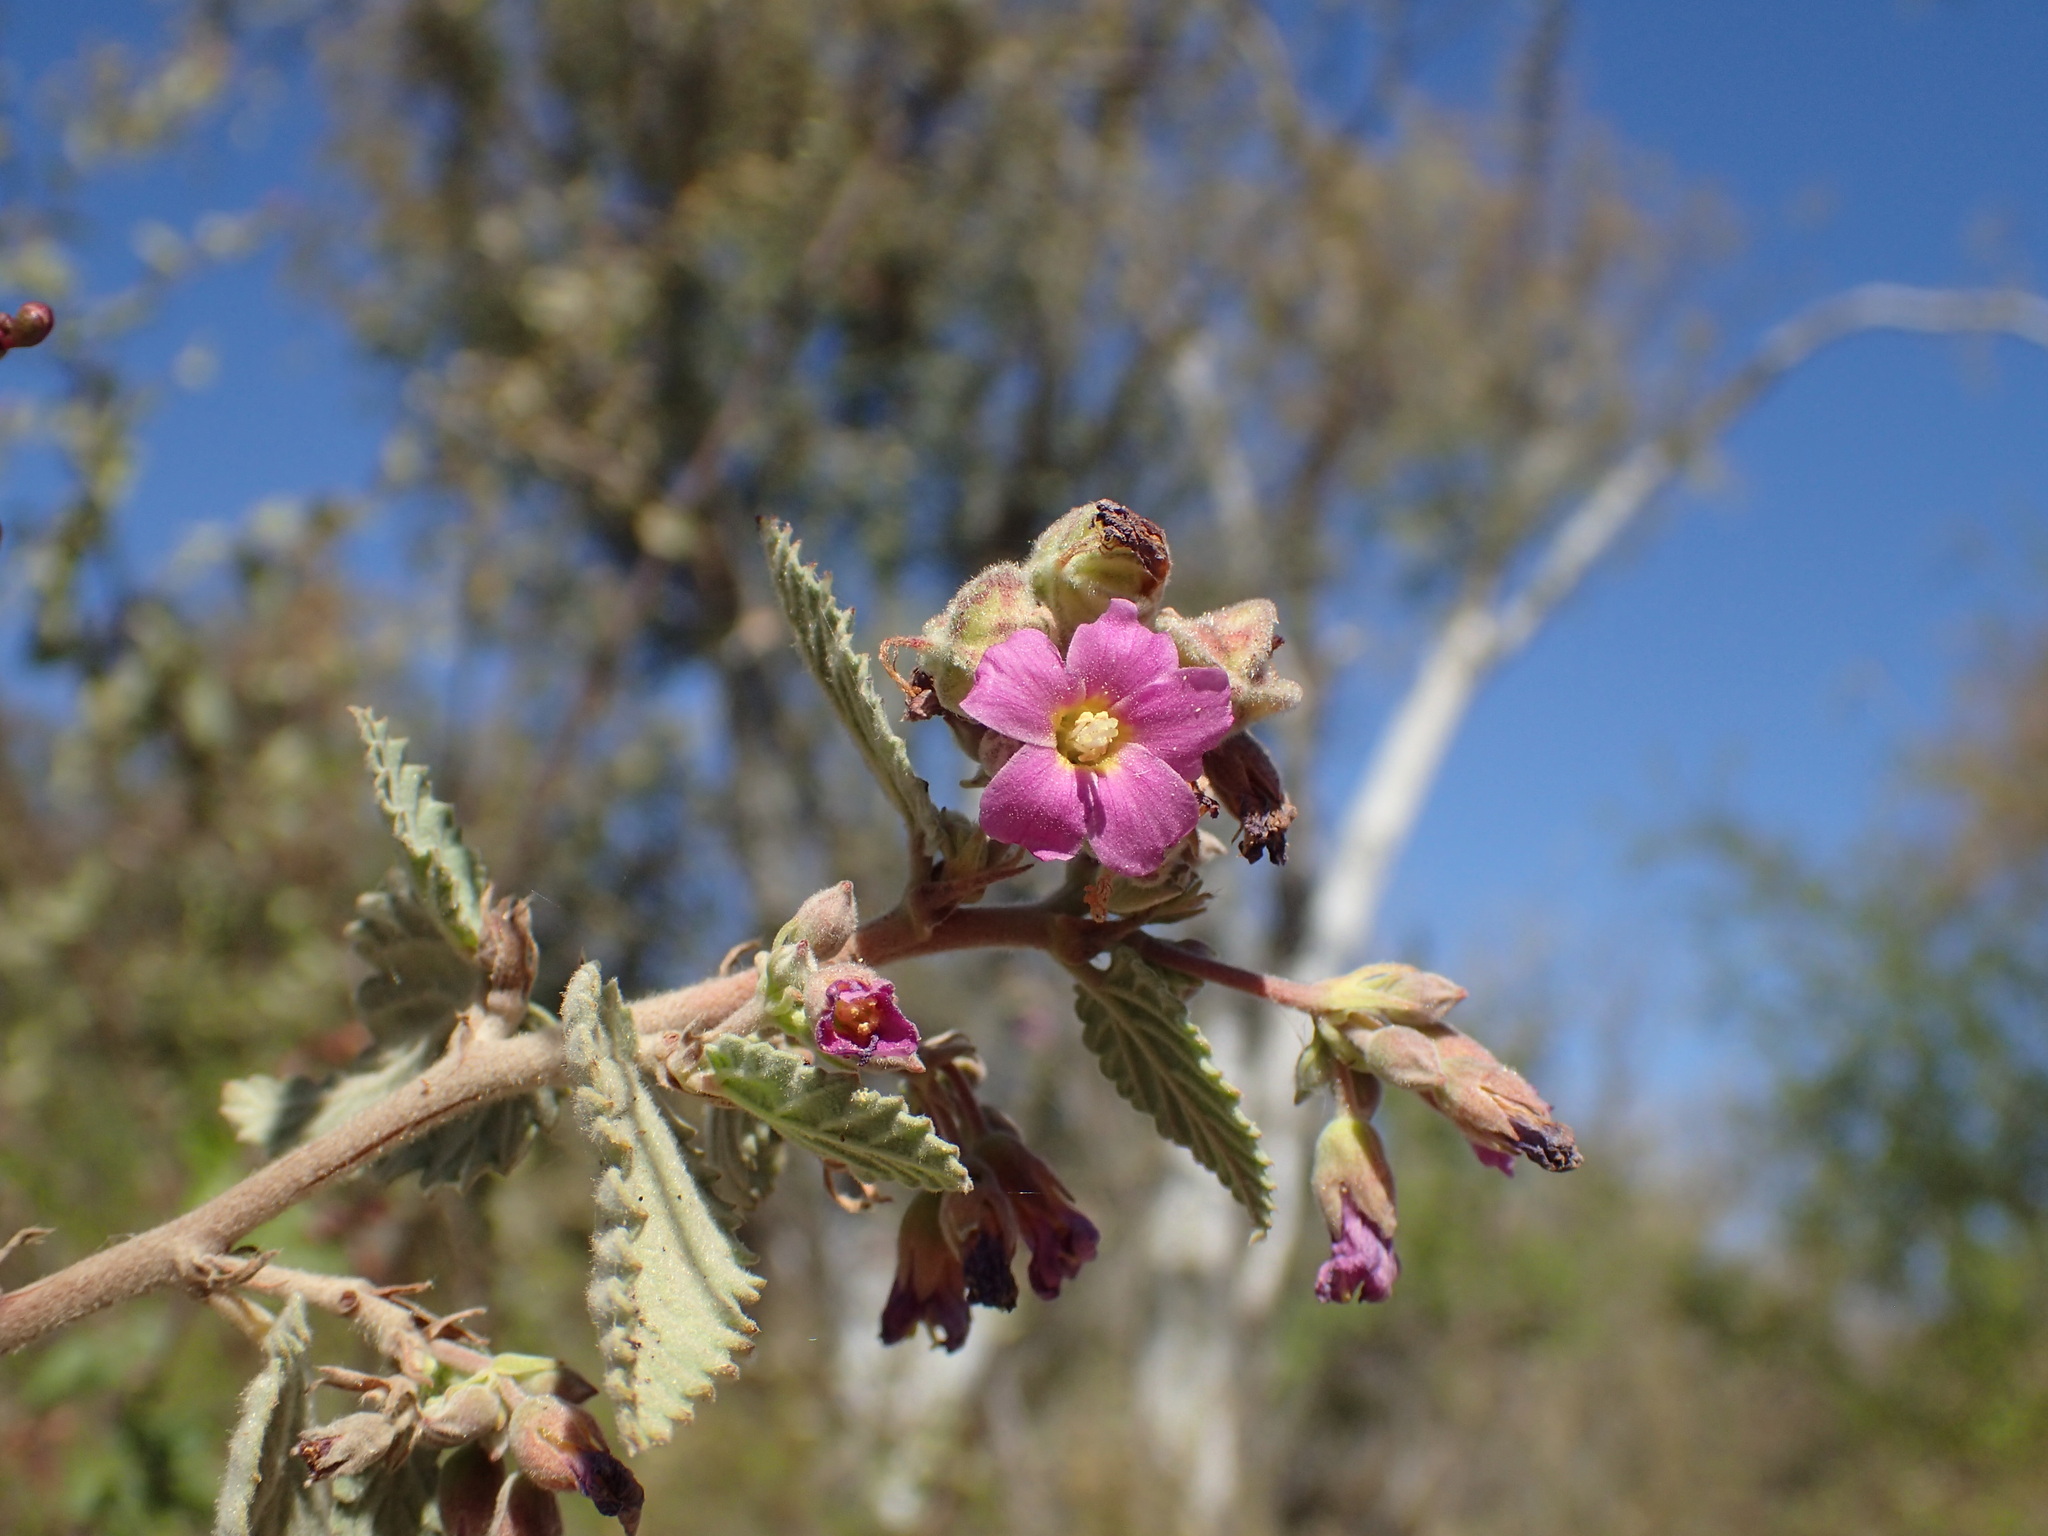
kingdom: Plantae
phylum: Tracheophyta
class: Magnoliopsida
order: Malvales
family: Malvaceae
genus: Melochia
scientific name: Melochia tomentosa
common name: Black torch
